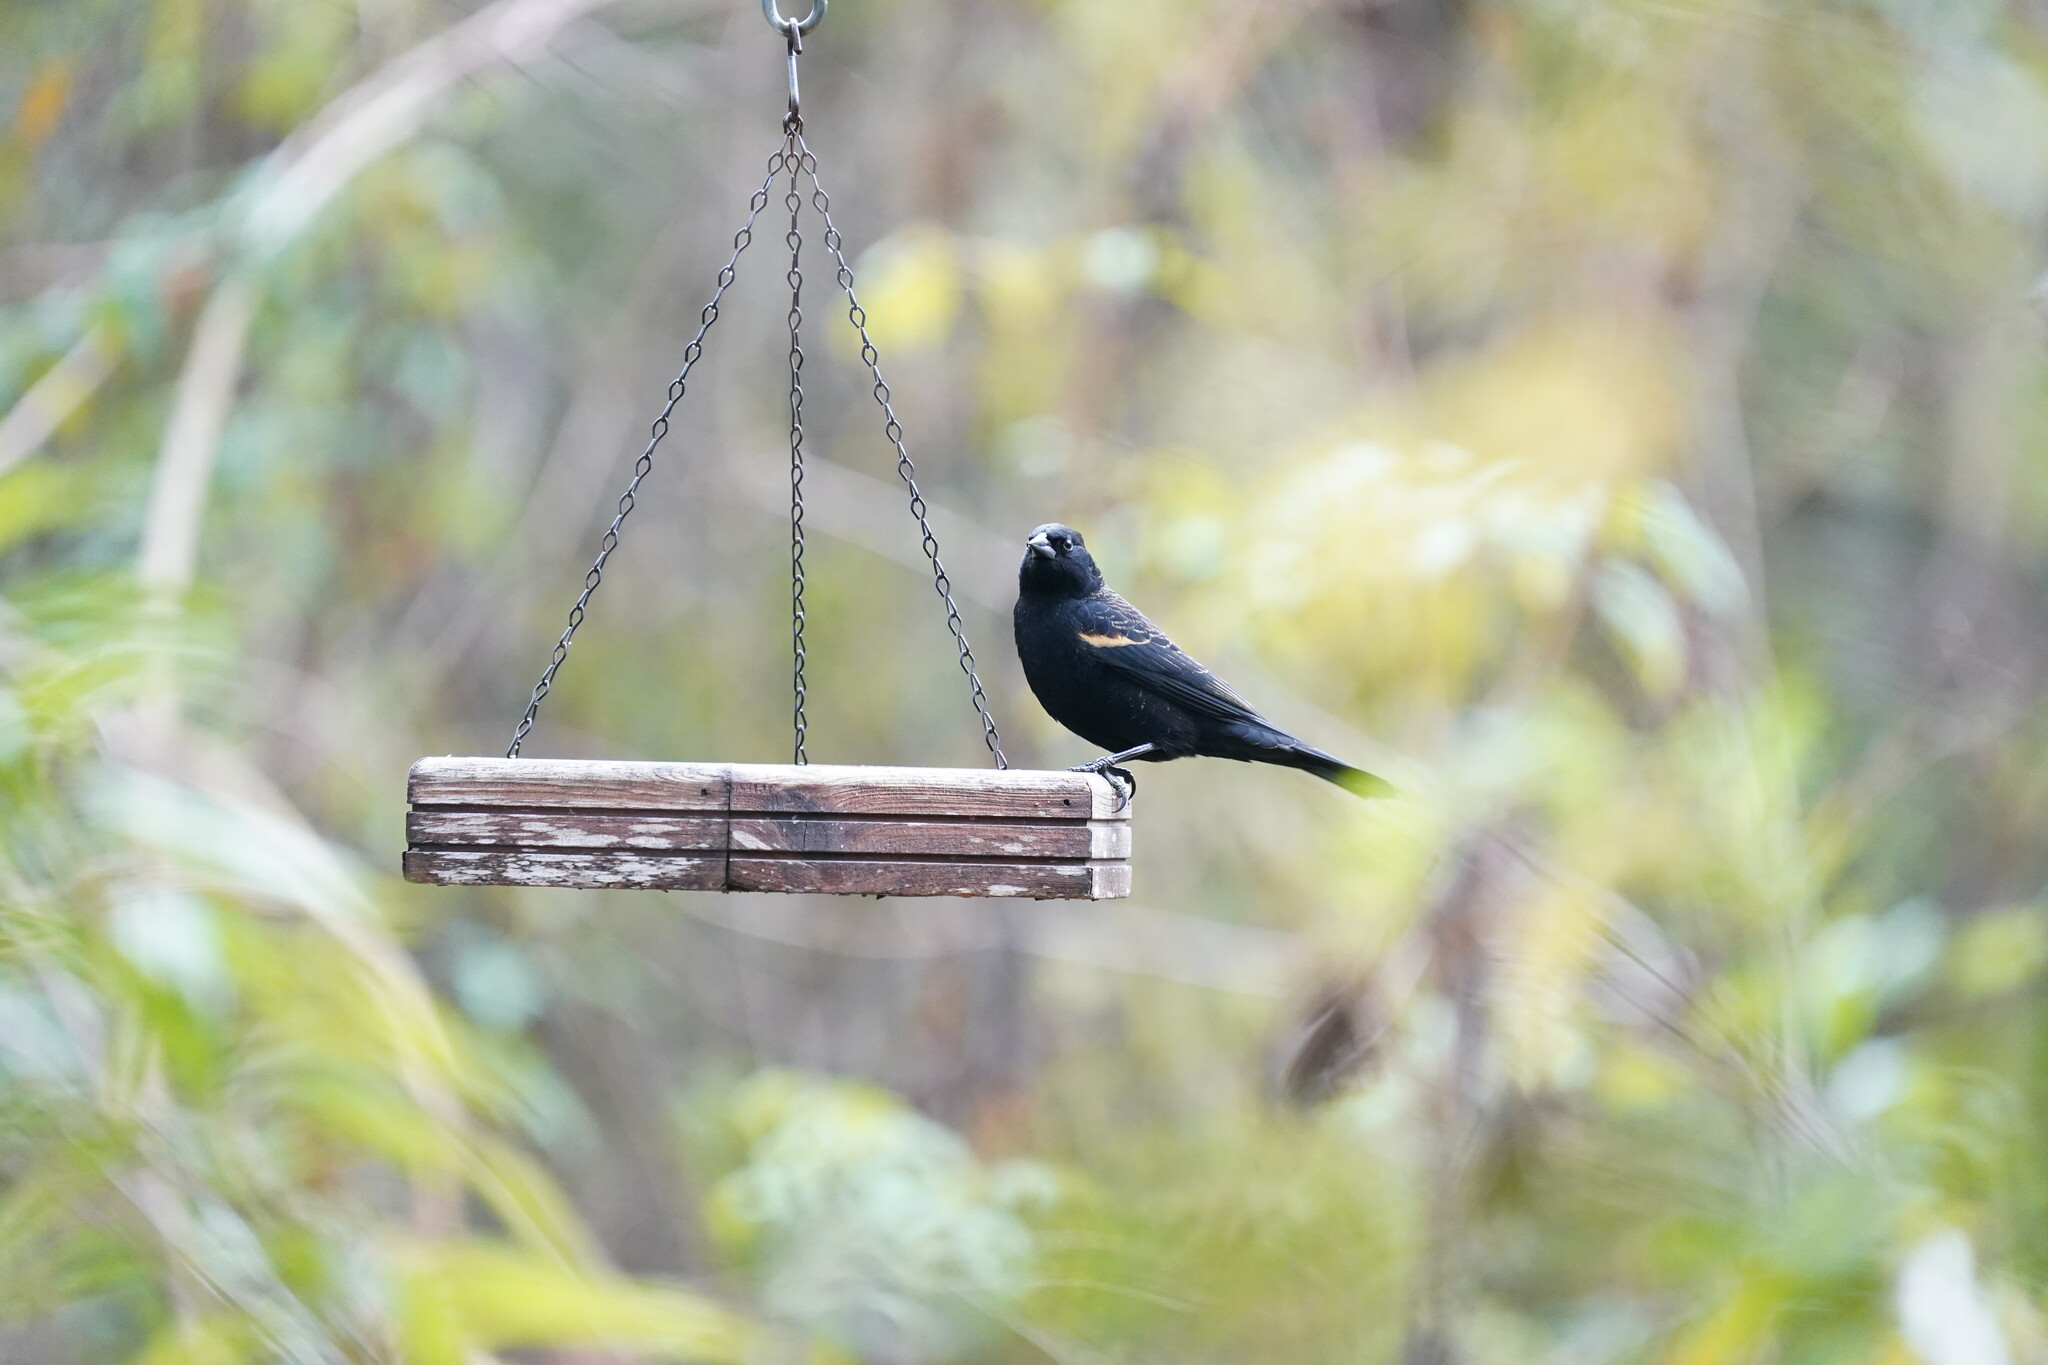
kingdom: Animalia
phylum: Chordata
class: Aves
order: Passeriformes
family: Icteridae
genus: Agelaius
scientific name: Agelaius phoeniceus
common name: Red-winged blackbird
